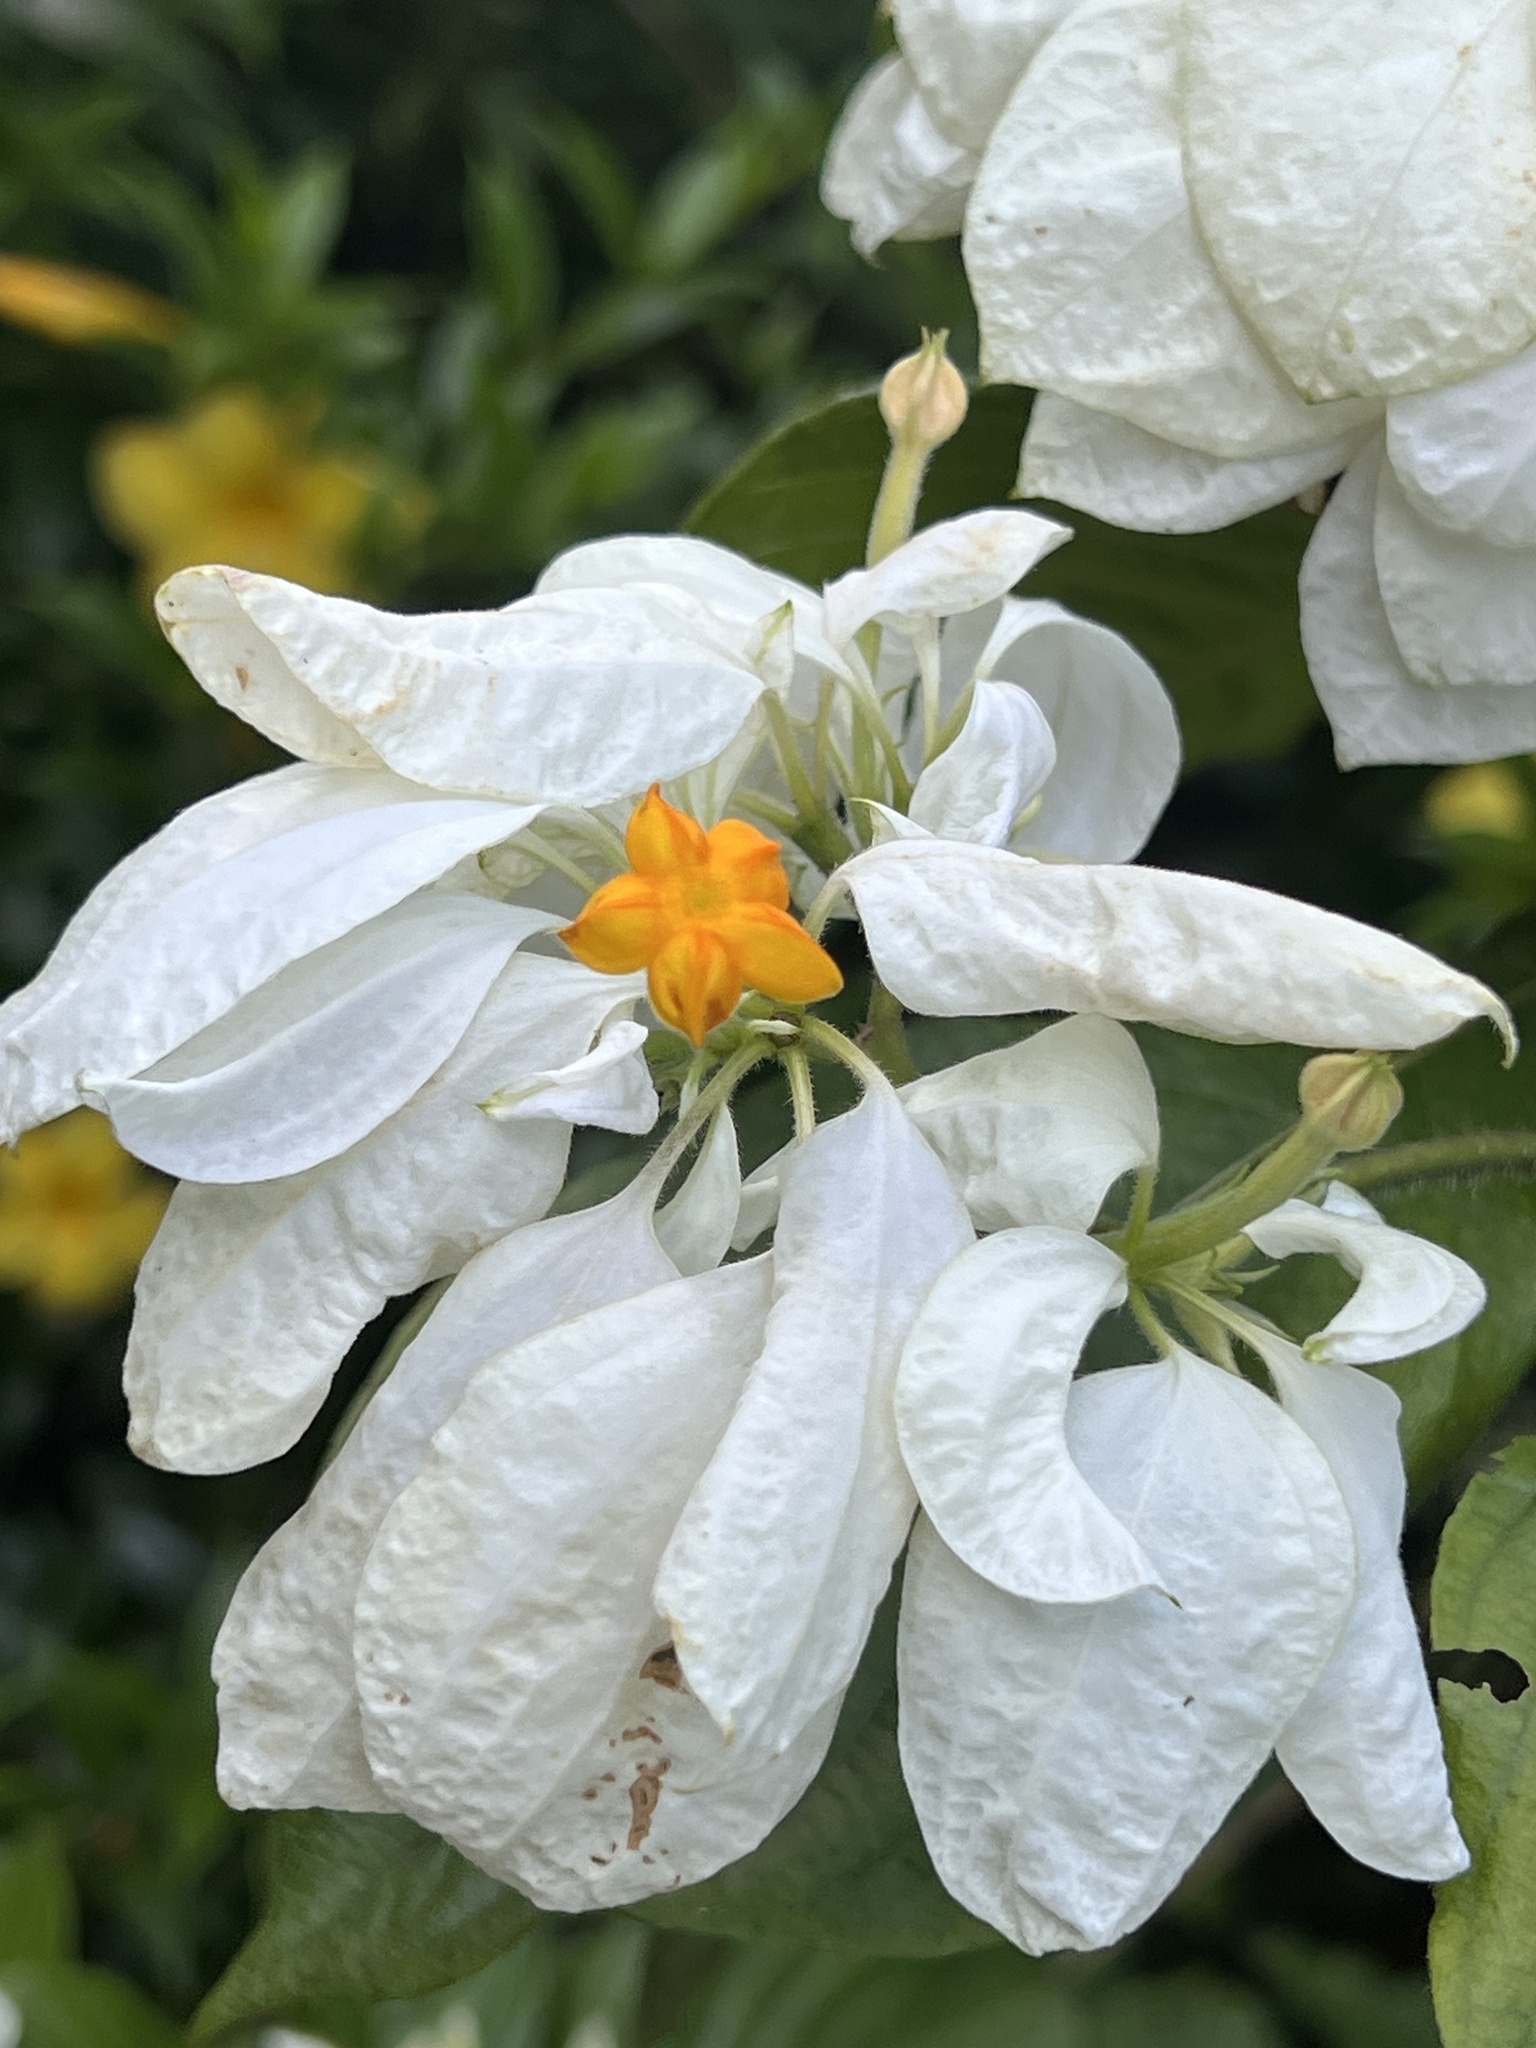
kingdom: Plantae
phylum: Tracheophyta
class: Magnoliopsida
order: Gentianales
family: Rubiaceae
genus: Mussaenda
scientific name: Mussaenda philippica
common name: Philippine mussaenda
